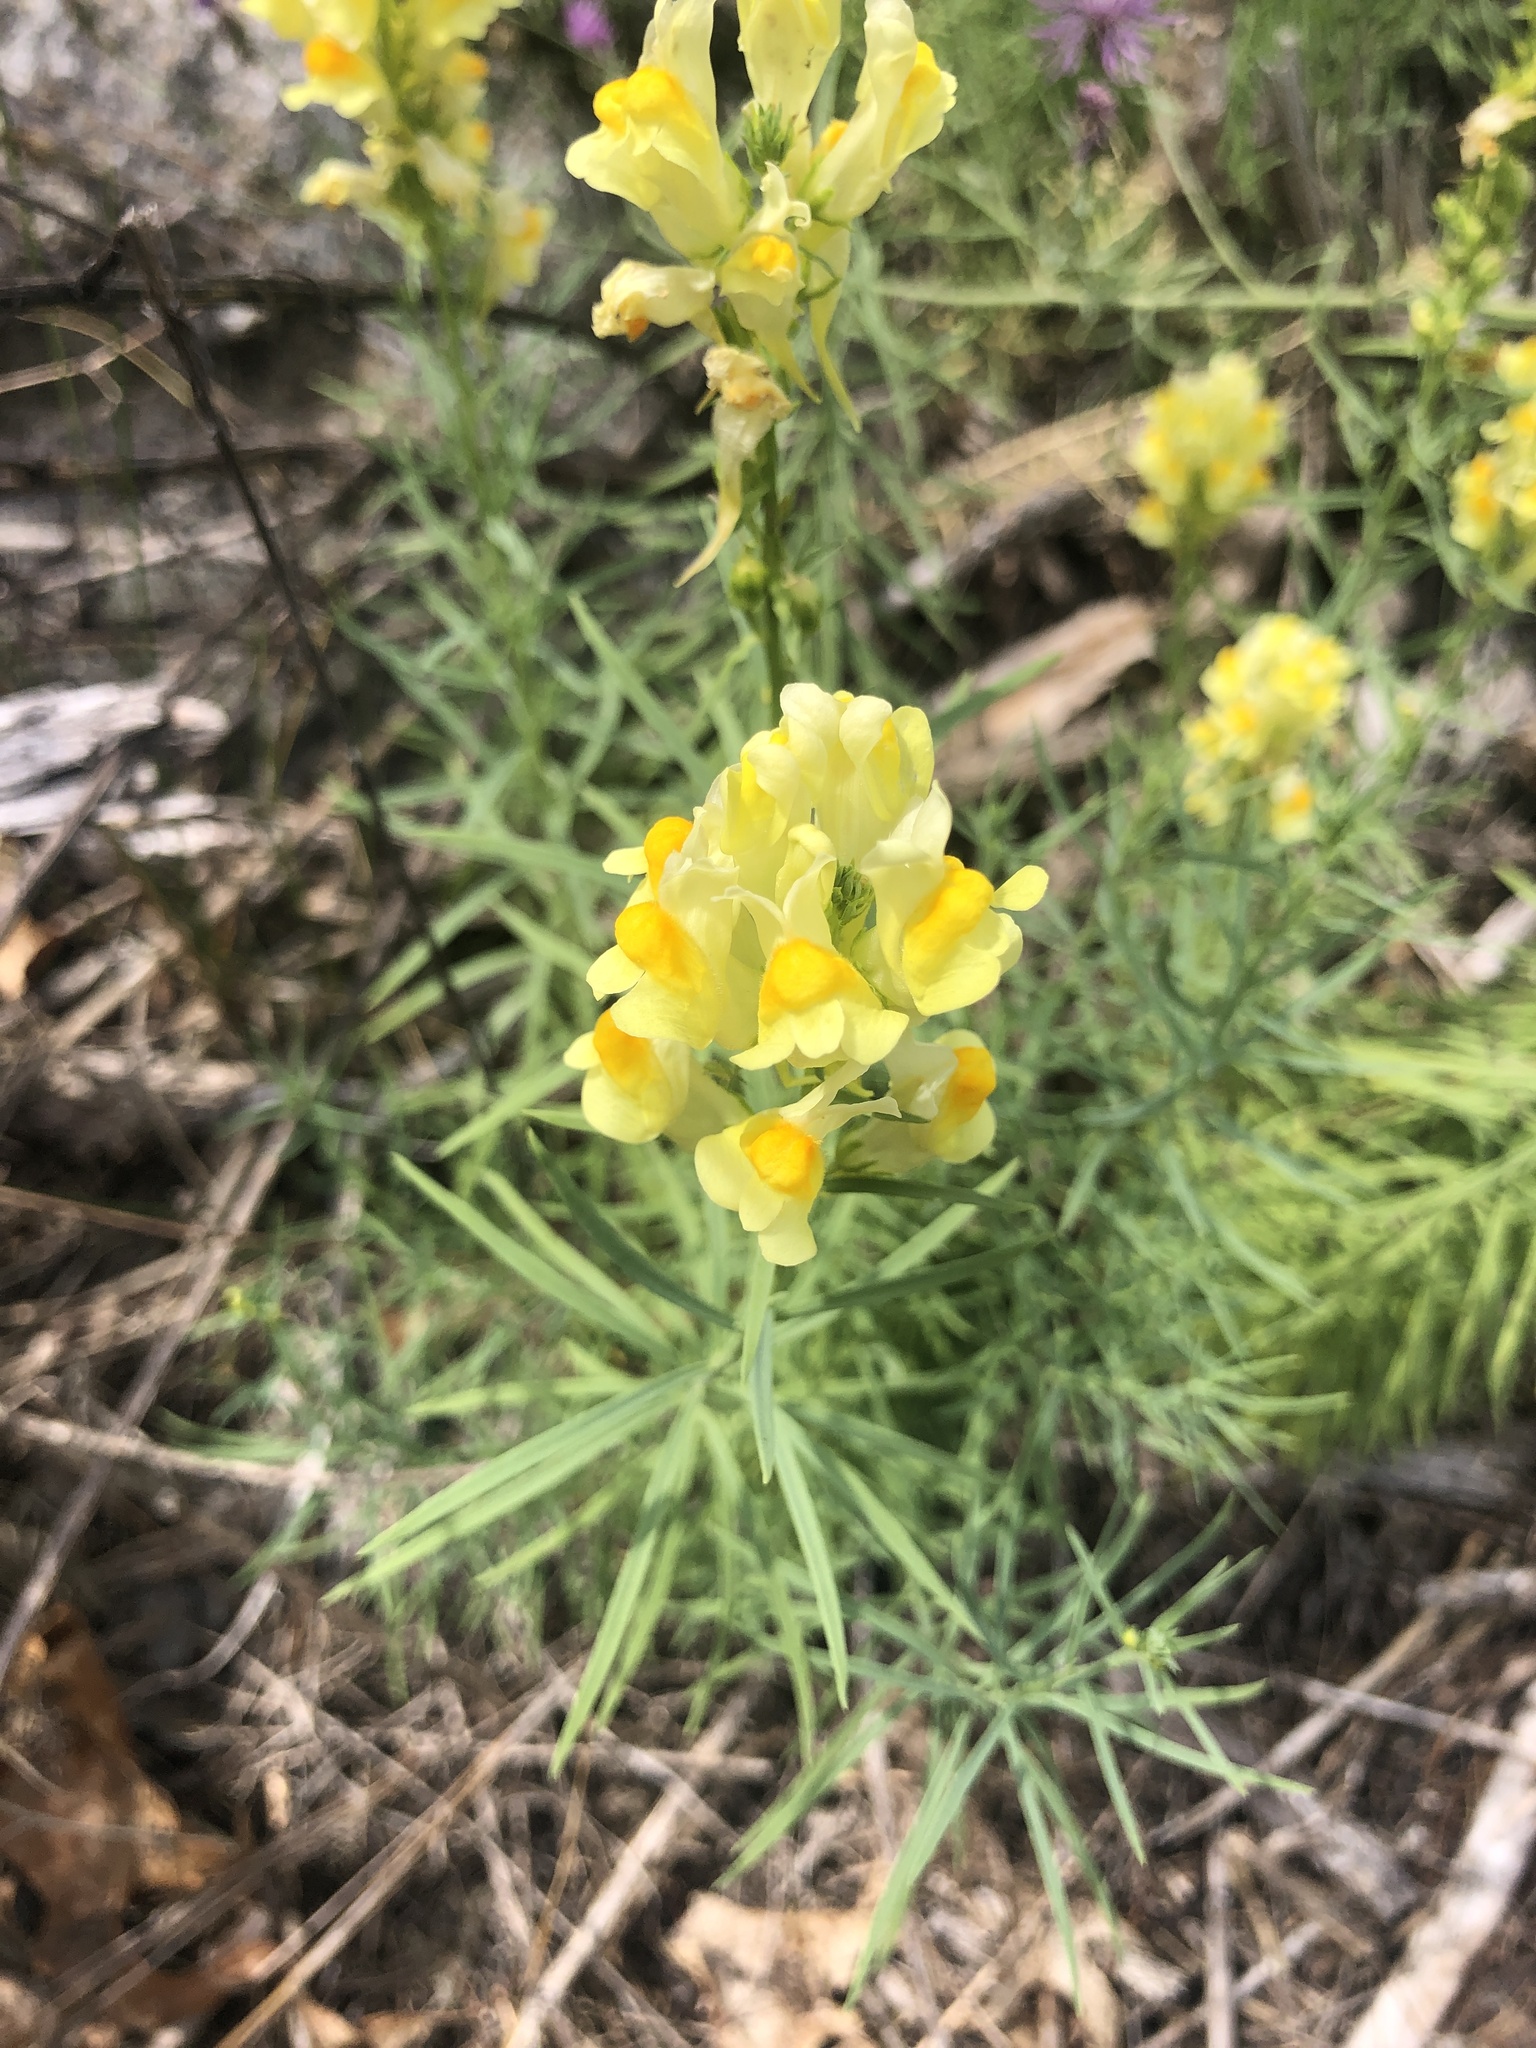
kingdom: Plantae
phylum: Tracheophyta
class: Magnoliopsida
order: Lamiales
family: Plantaginaceae
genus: Linaria
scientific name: Linaria vulgaris
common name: Butter and eggs
